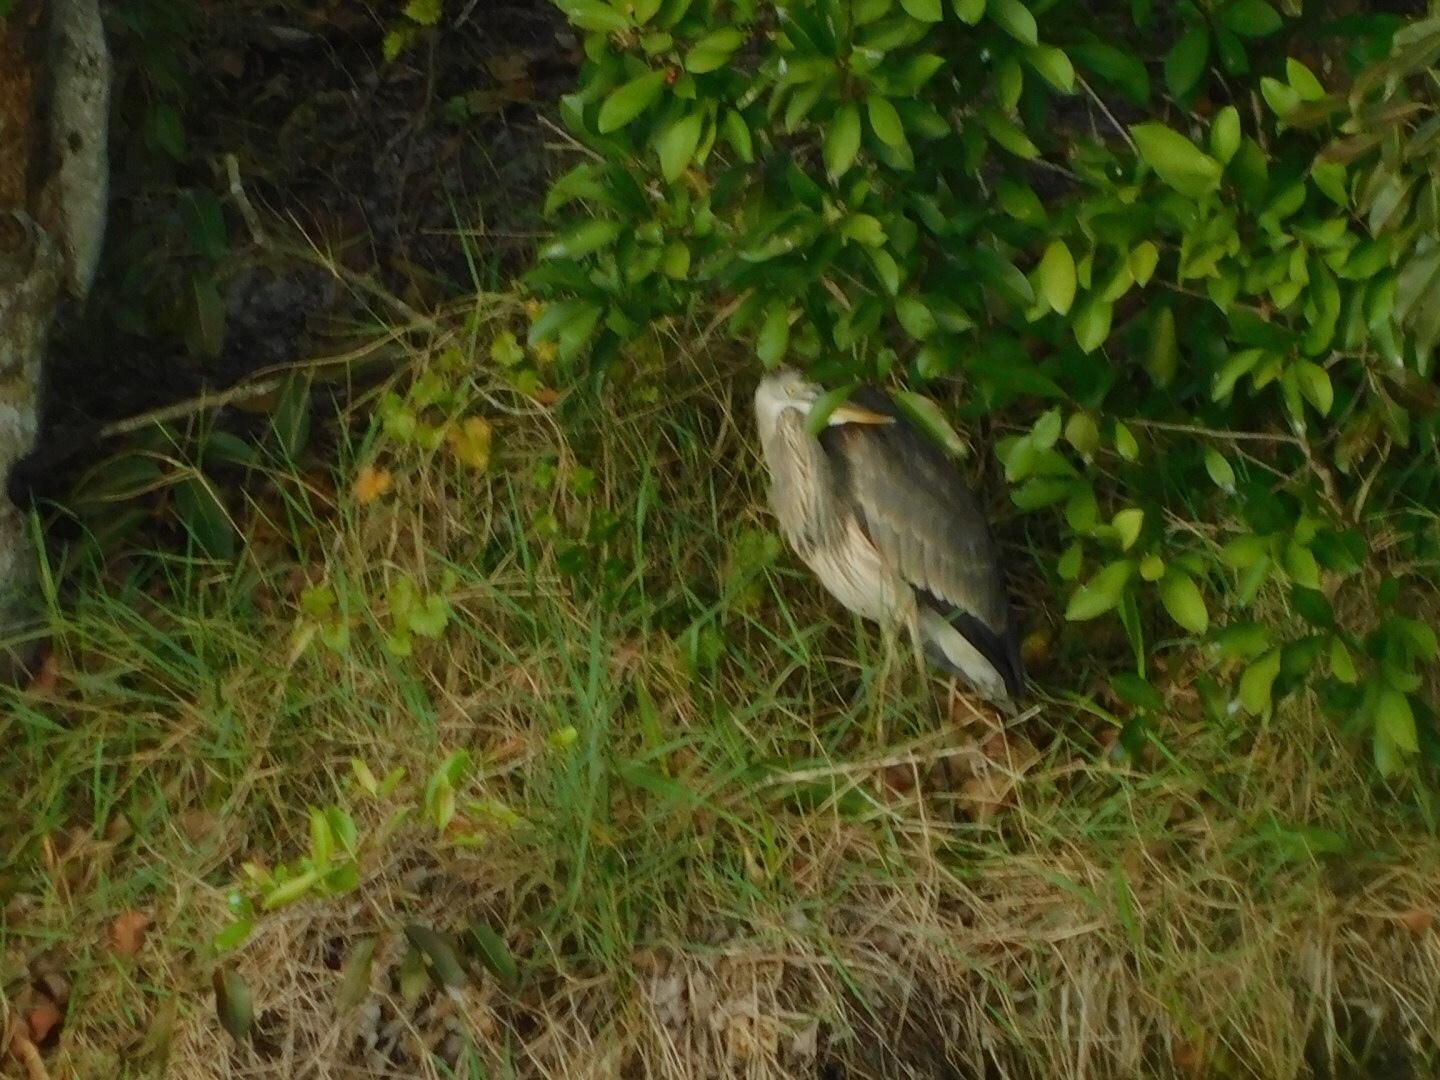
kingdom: Animalia
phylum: Chordata
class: Aves
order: Pelecaniformes
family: Ardeidae
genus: Ardea
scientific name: Ardea herodias
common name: Great blue heron
